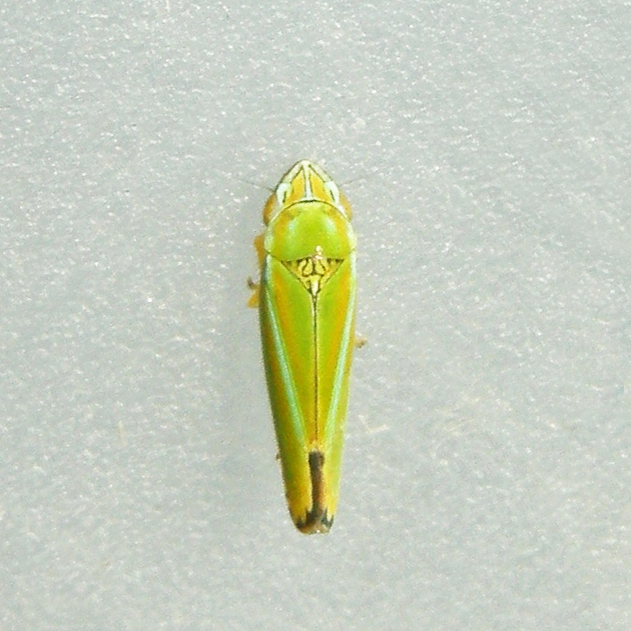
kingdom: Animalia
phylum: Arthropoda
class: Insecta
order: Hemiptera
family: Cicadellidae
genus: Graphocephala
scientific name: Graphocephala versuta
